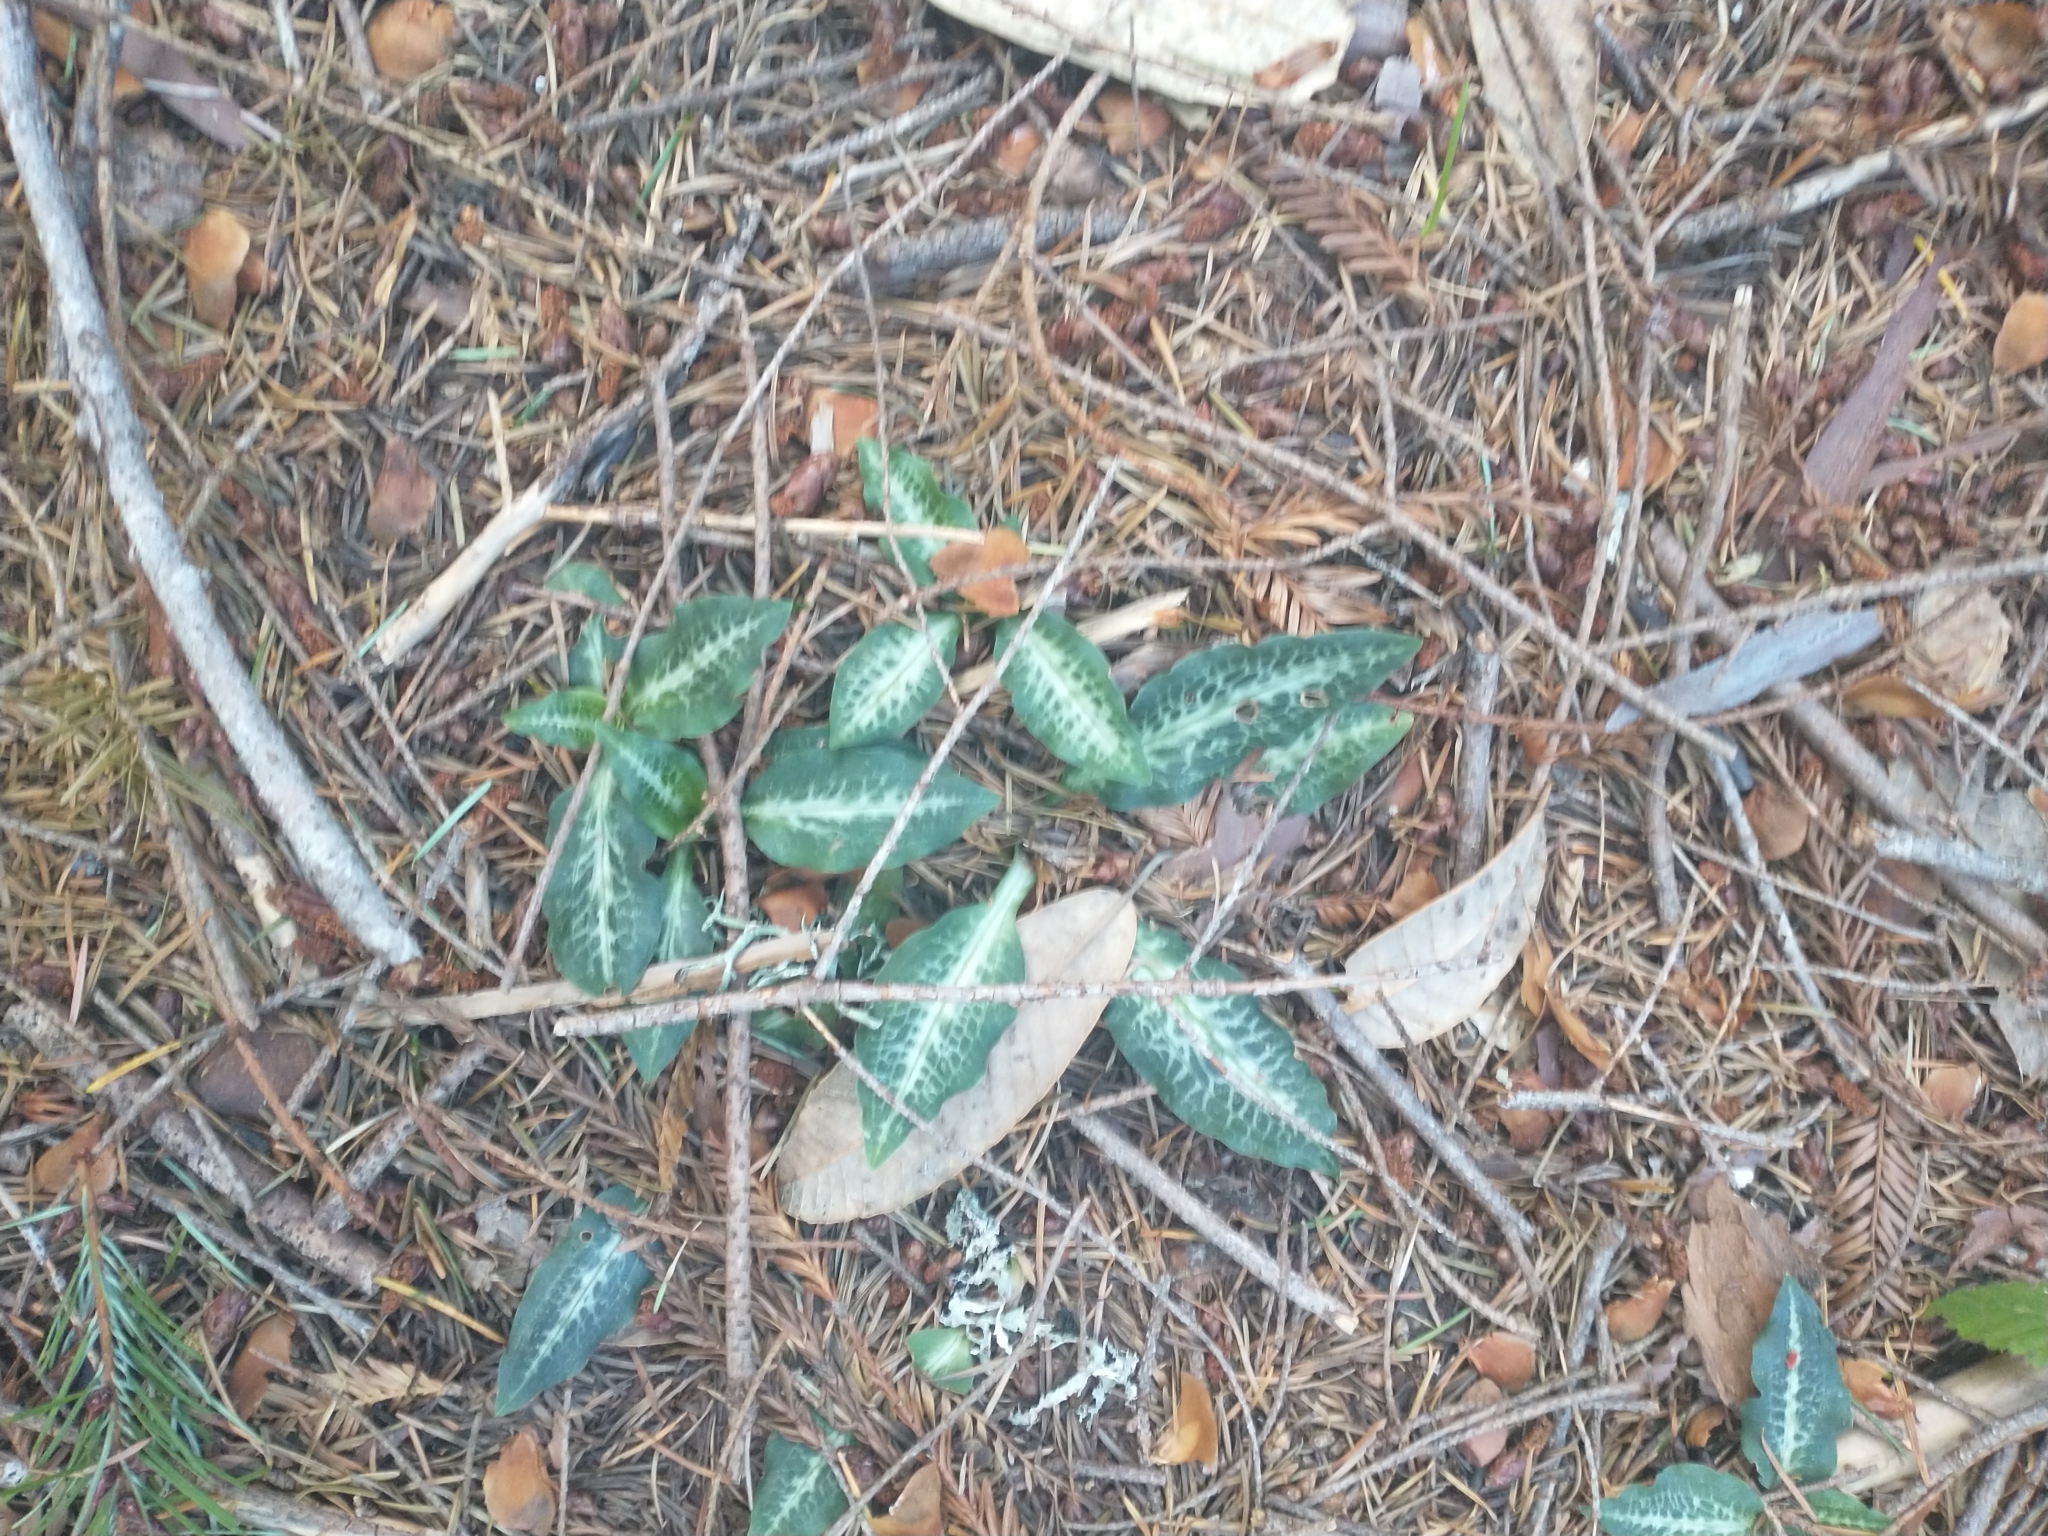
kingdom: Plantae
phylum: Tracheophyta
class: Liliopsida
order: Asparagales
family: Orchidaceae
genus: Goodyera
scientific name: Goodyera oblongifolia
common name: Giant rattlesnake-plantain
